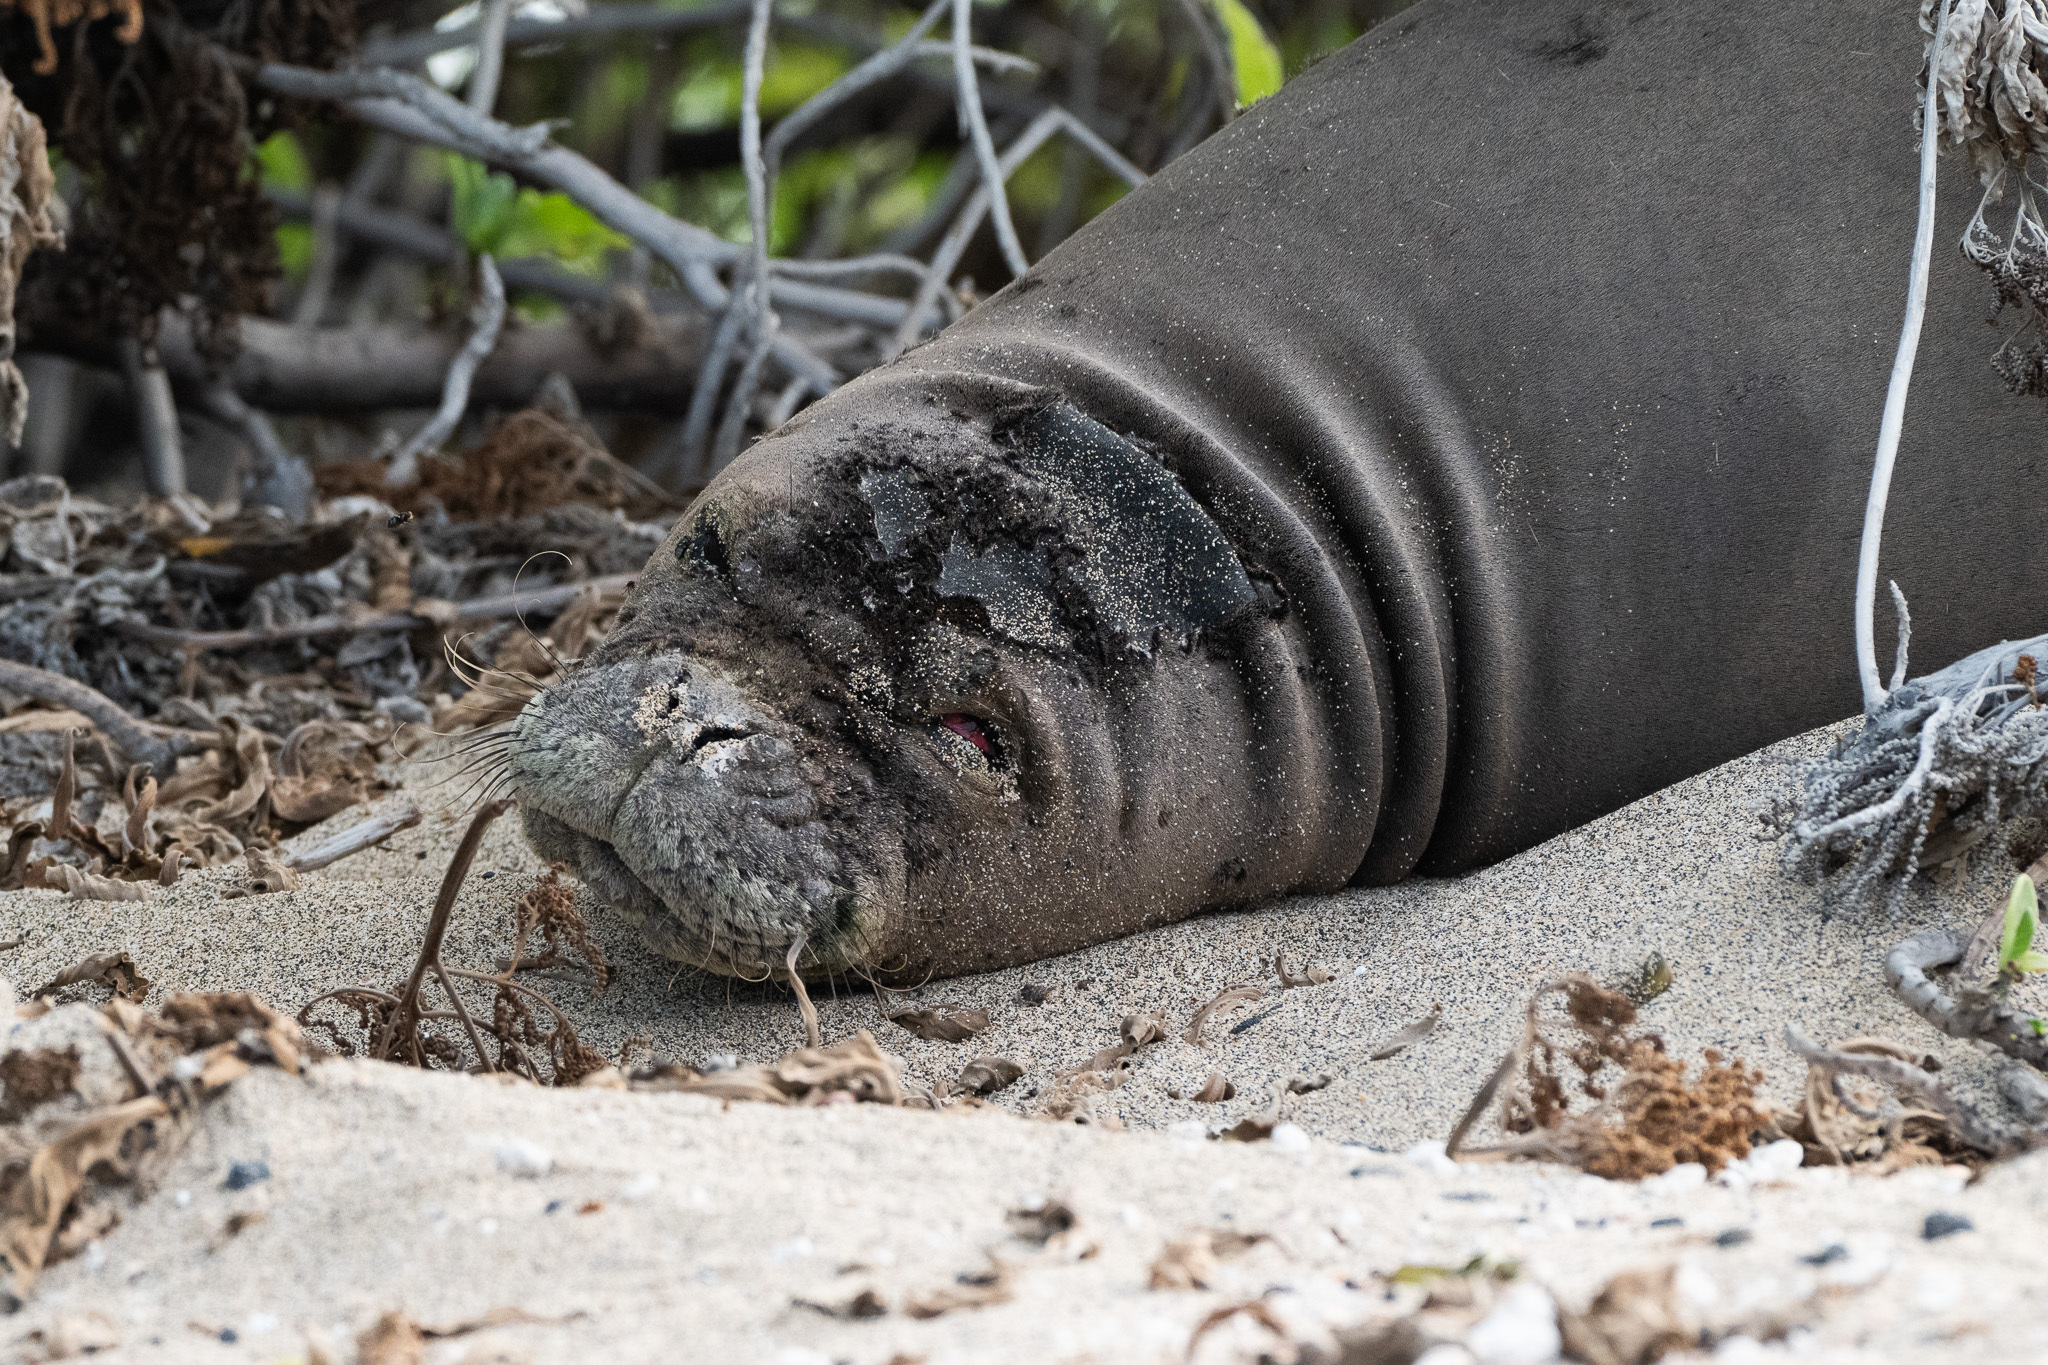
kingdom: Animalia
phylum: Chordata
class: Mammalia
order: Carnivora
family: Phocidae
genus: Neomonachus
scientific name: Neomonachus schauinslandi
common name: Hawaiian monk seal
